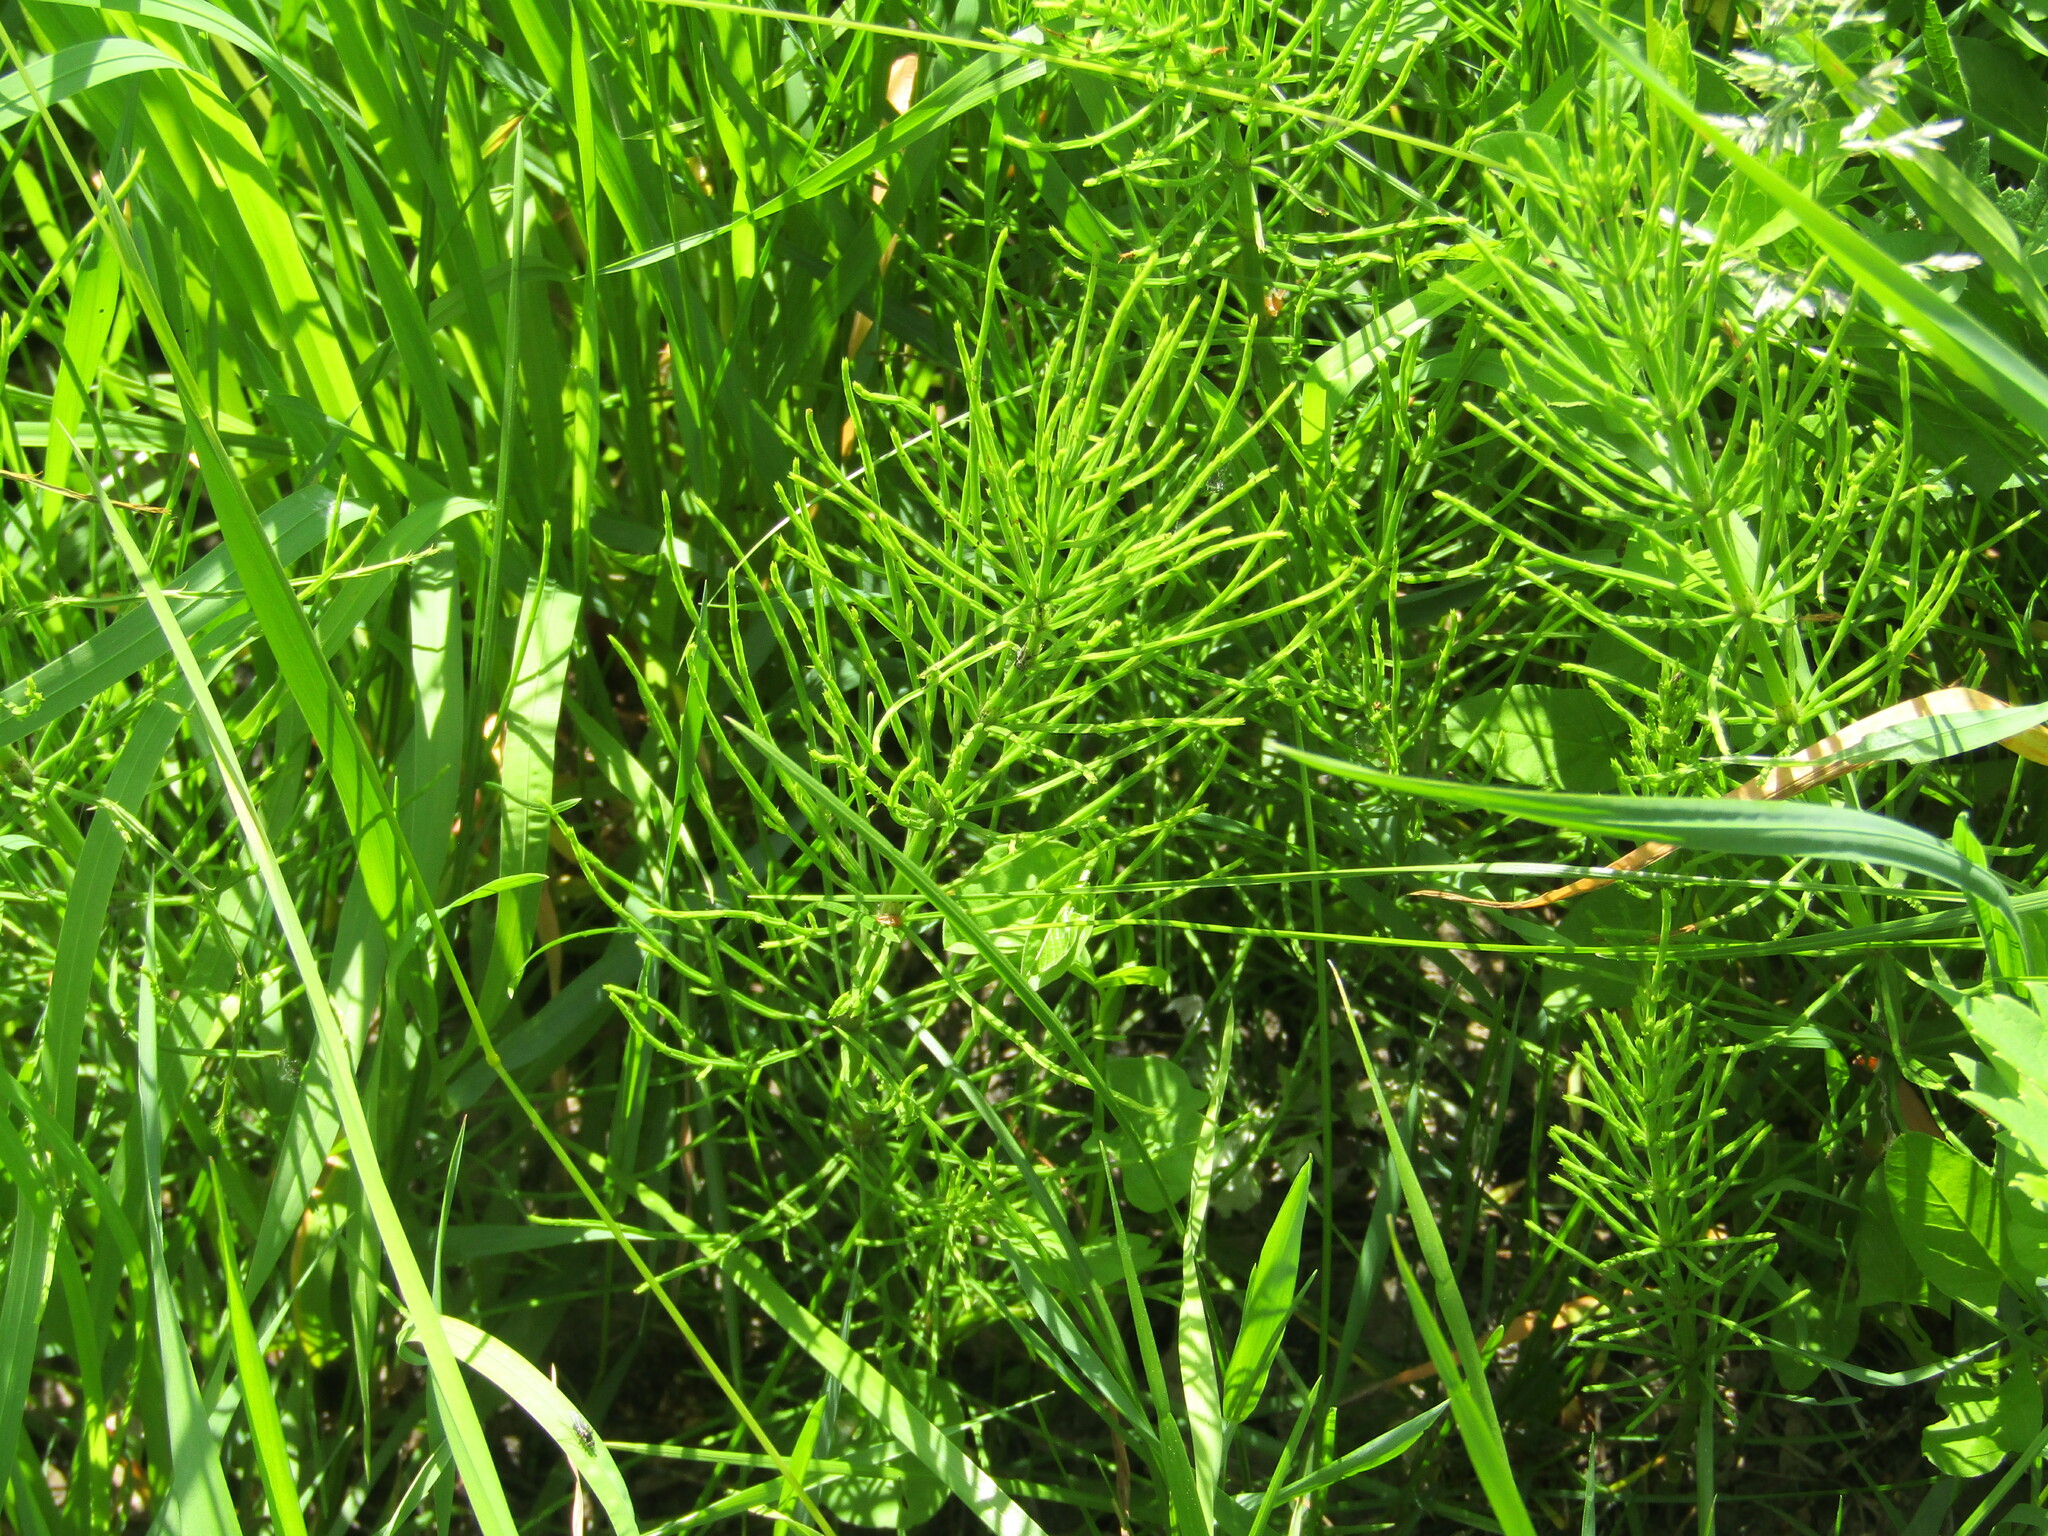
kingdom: Plantae
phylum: Tracheophyta
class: Polypodiopsida
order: Equisetales
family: Equisetaceae
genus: Equisetum
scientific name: Equisetum arvense
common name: Field horsetail
